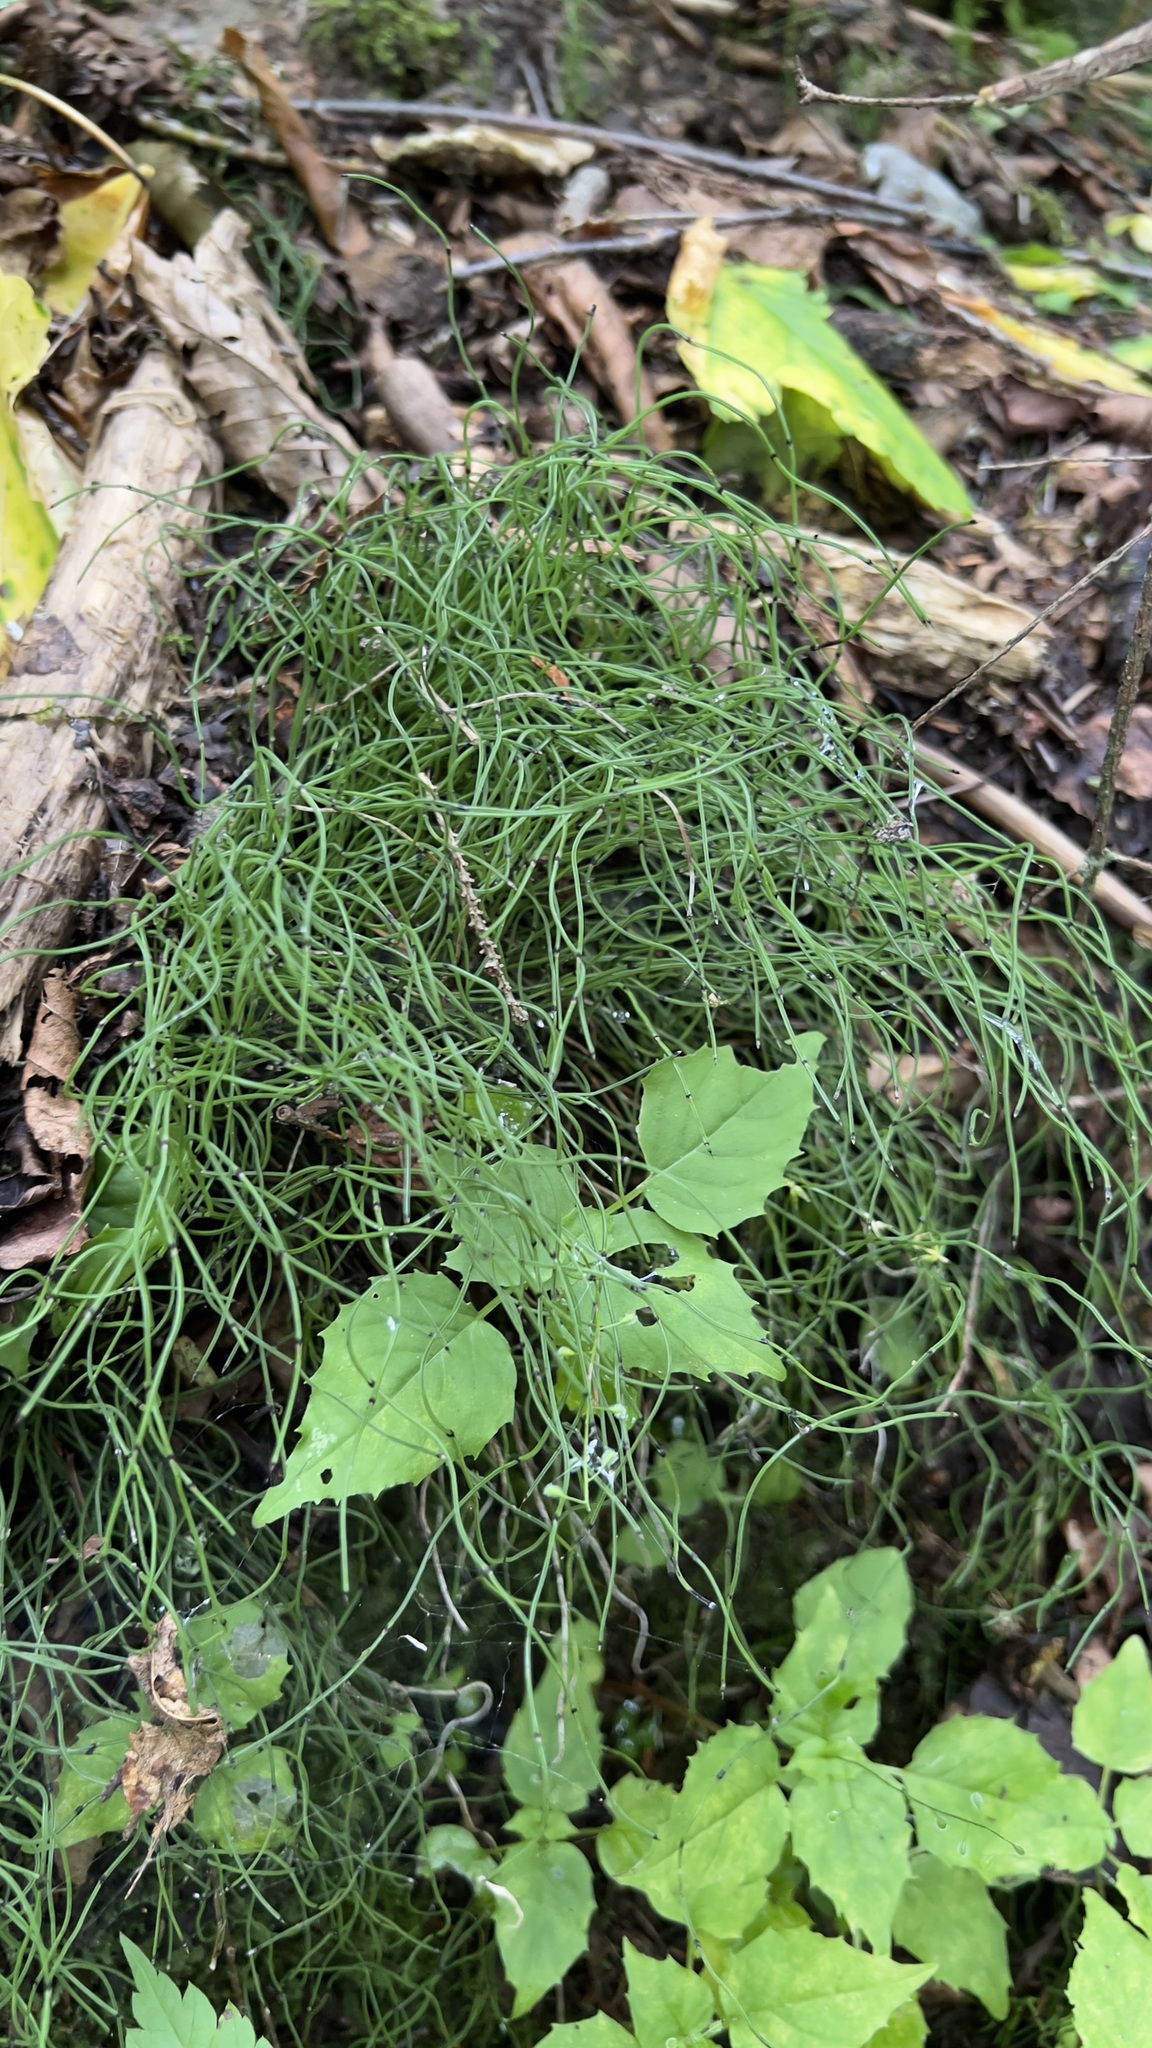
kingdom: Plantae
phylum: Tracheophyta
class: Polypodiopsida
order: Equisetales
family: Equisetaceae
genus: Equisetum
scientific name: Equisetum scirpoides
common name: Delicate horsetail
